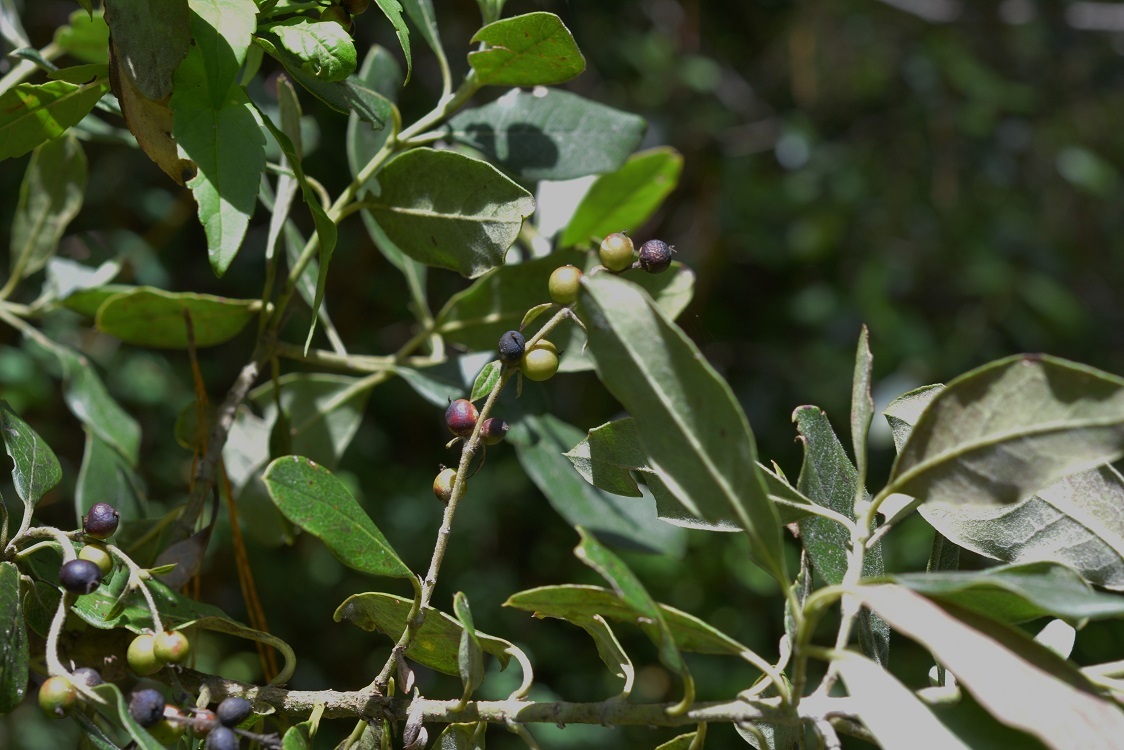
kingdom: Plantae
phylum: Tracheophyta
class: Magnoliopsida
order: Garryales
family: Garryaceae
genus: Garrya
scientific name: Garrya laurifolia
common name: Cuachichic
